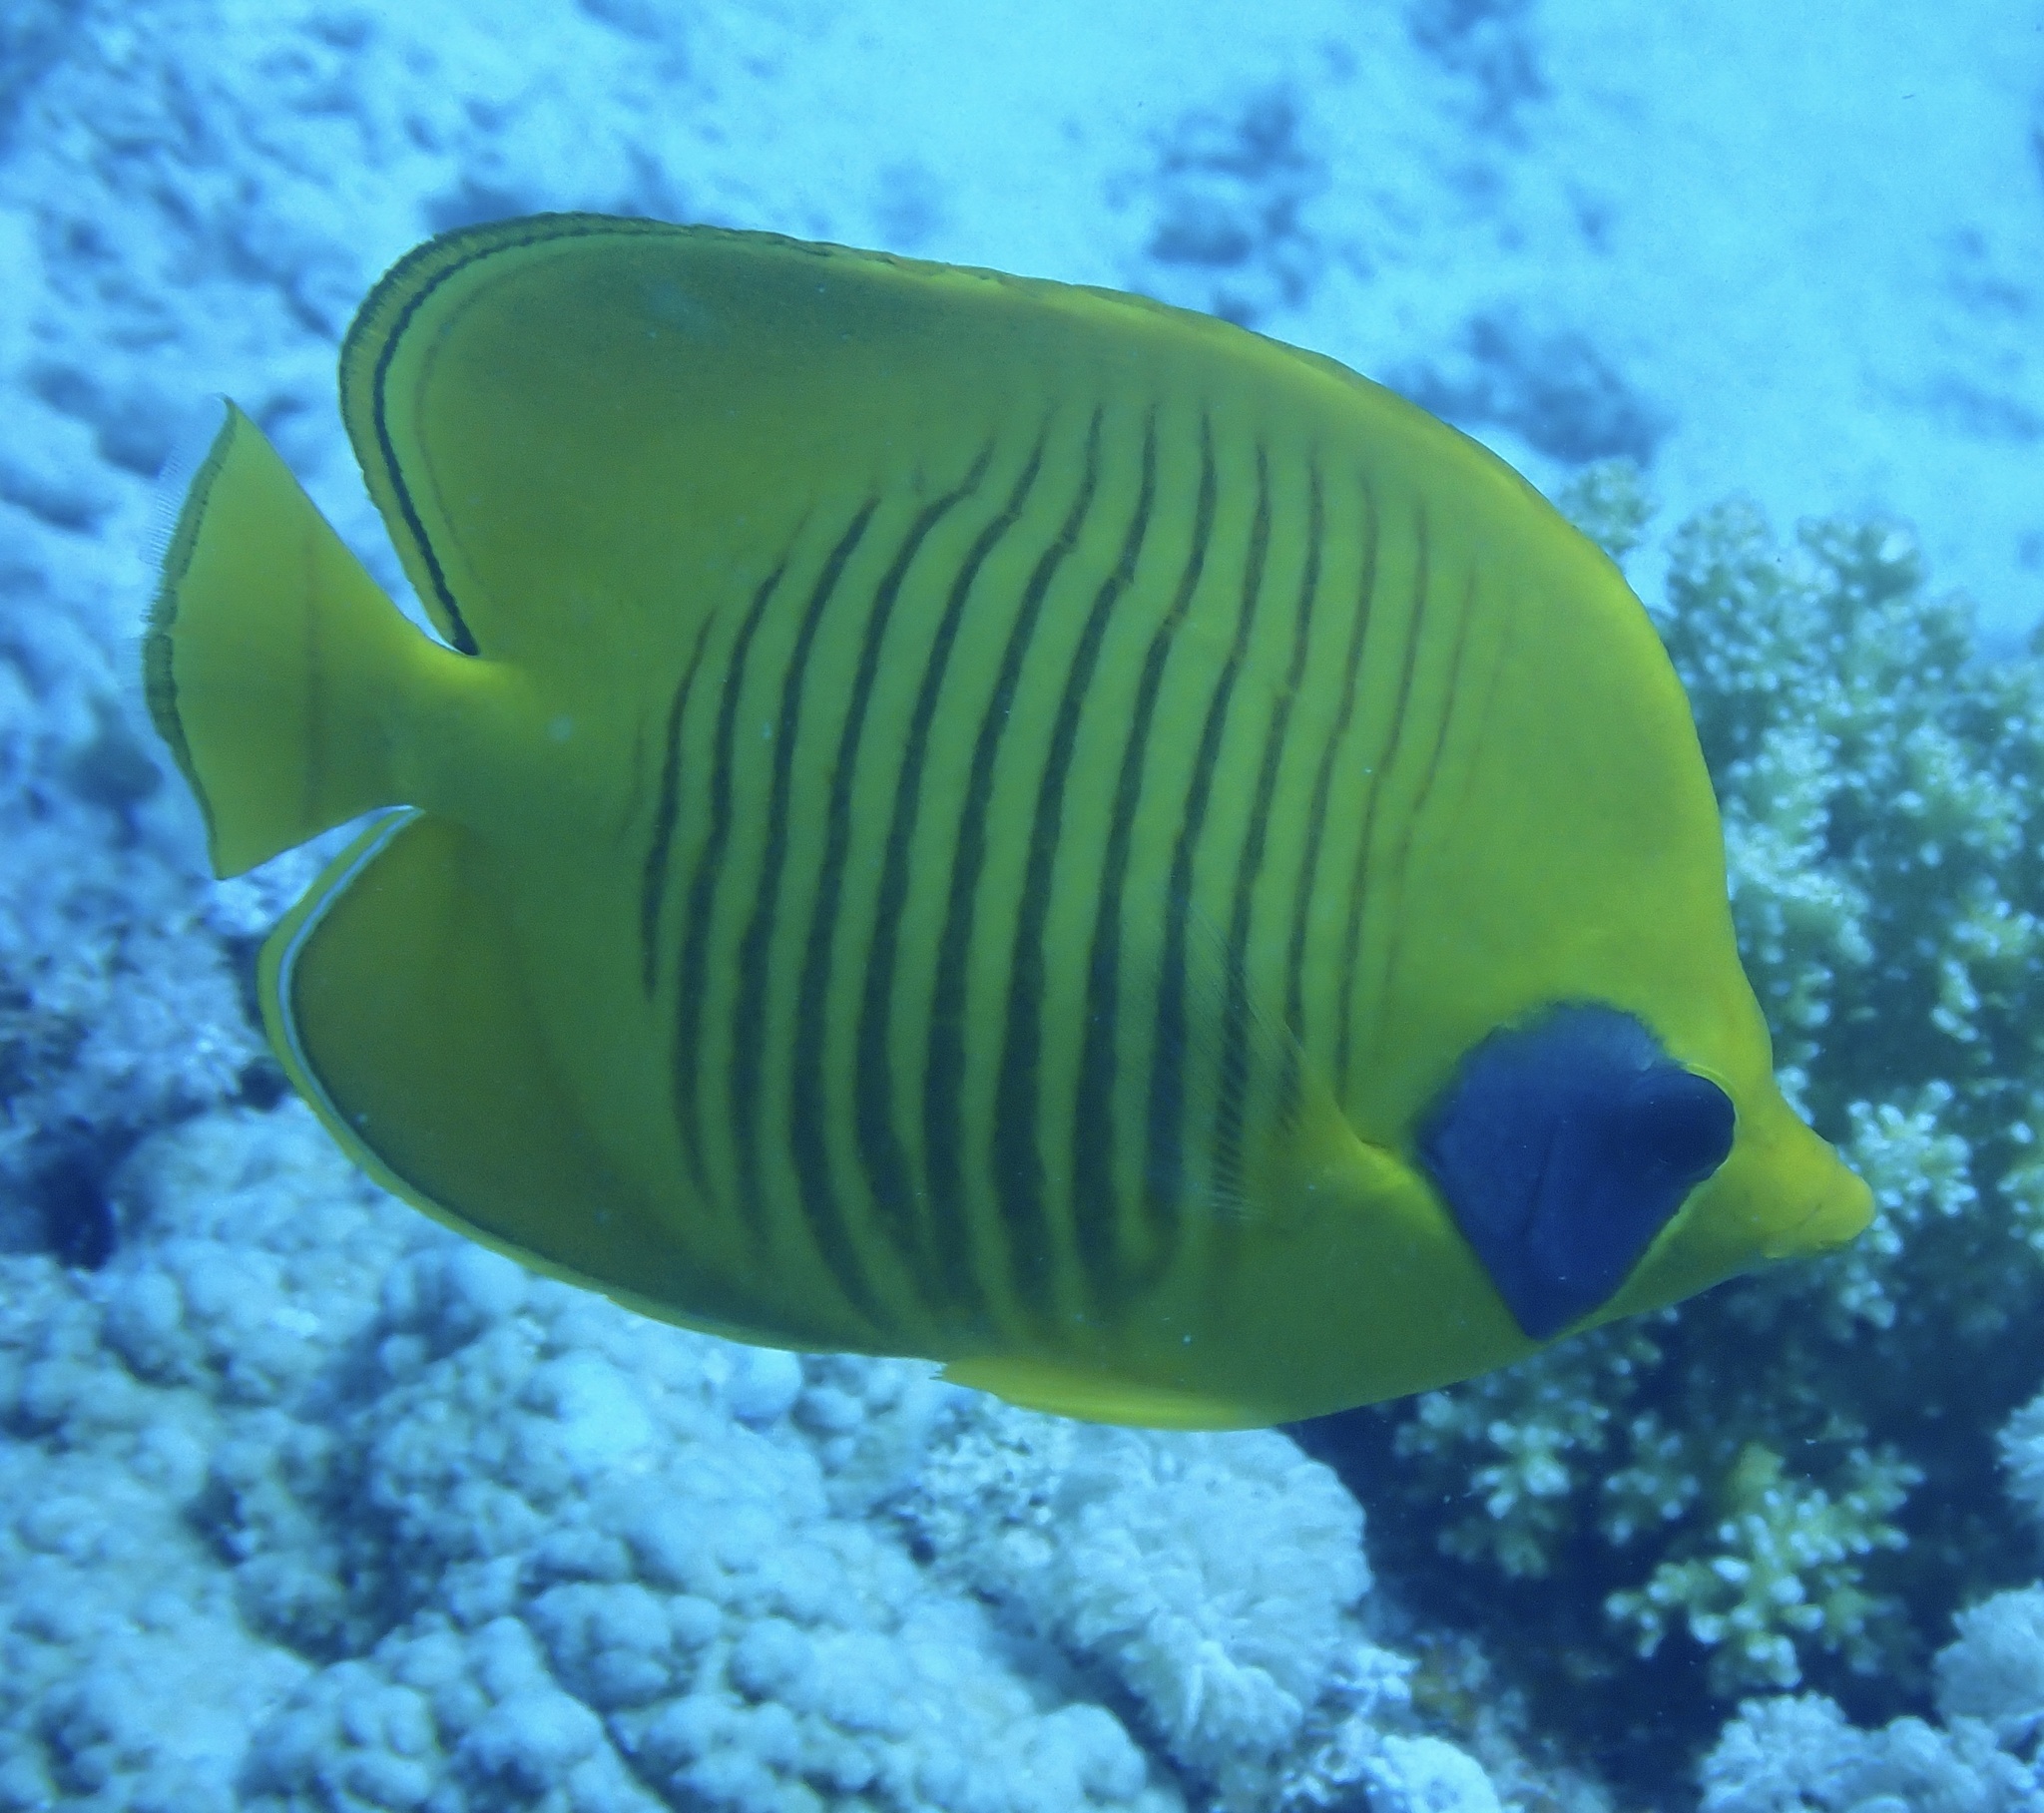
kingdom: Animalia
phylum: Chordata
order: Perciformes
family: Chaetodontidae
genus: Chaetodon
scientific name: Chaetodon semilarvatus
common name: Golden butterflyfish
